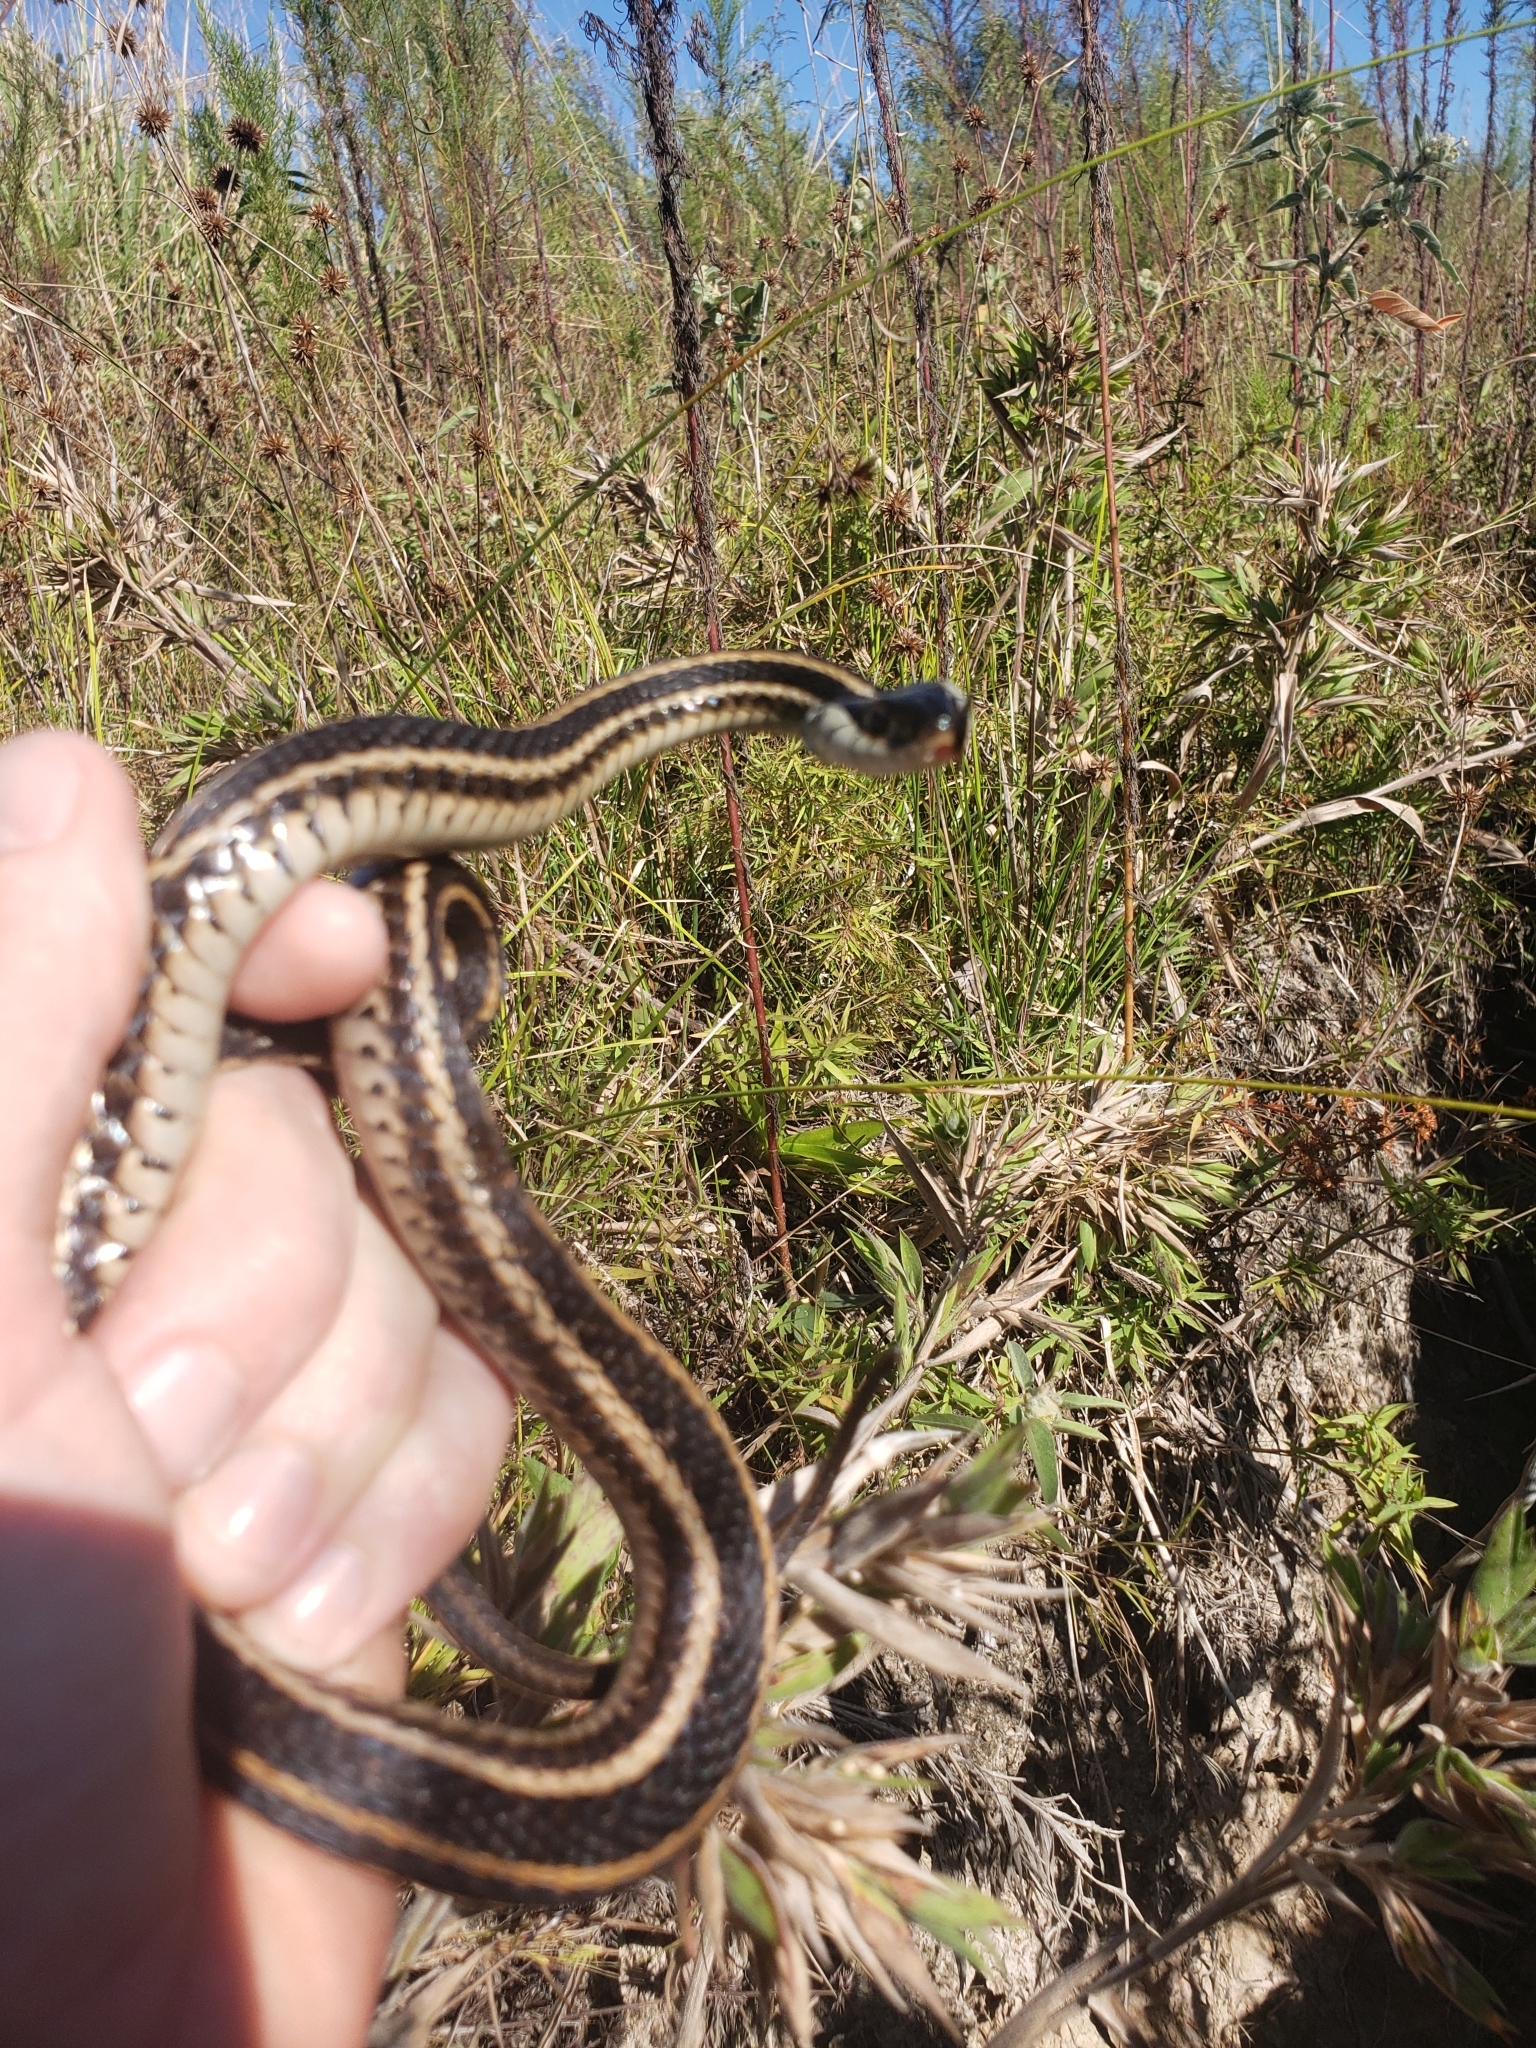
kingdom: Animalia
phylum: Chordata
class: Squamata
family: Colubridae
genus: Thamnophis
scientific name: Thamnophis sirtalis
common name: Common garter snake
